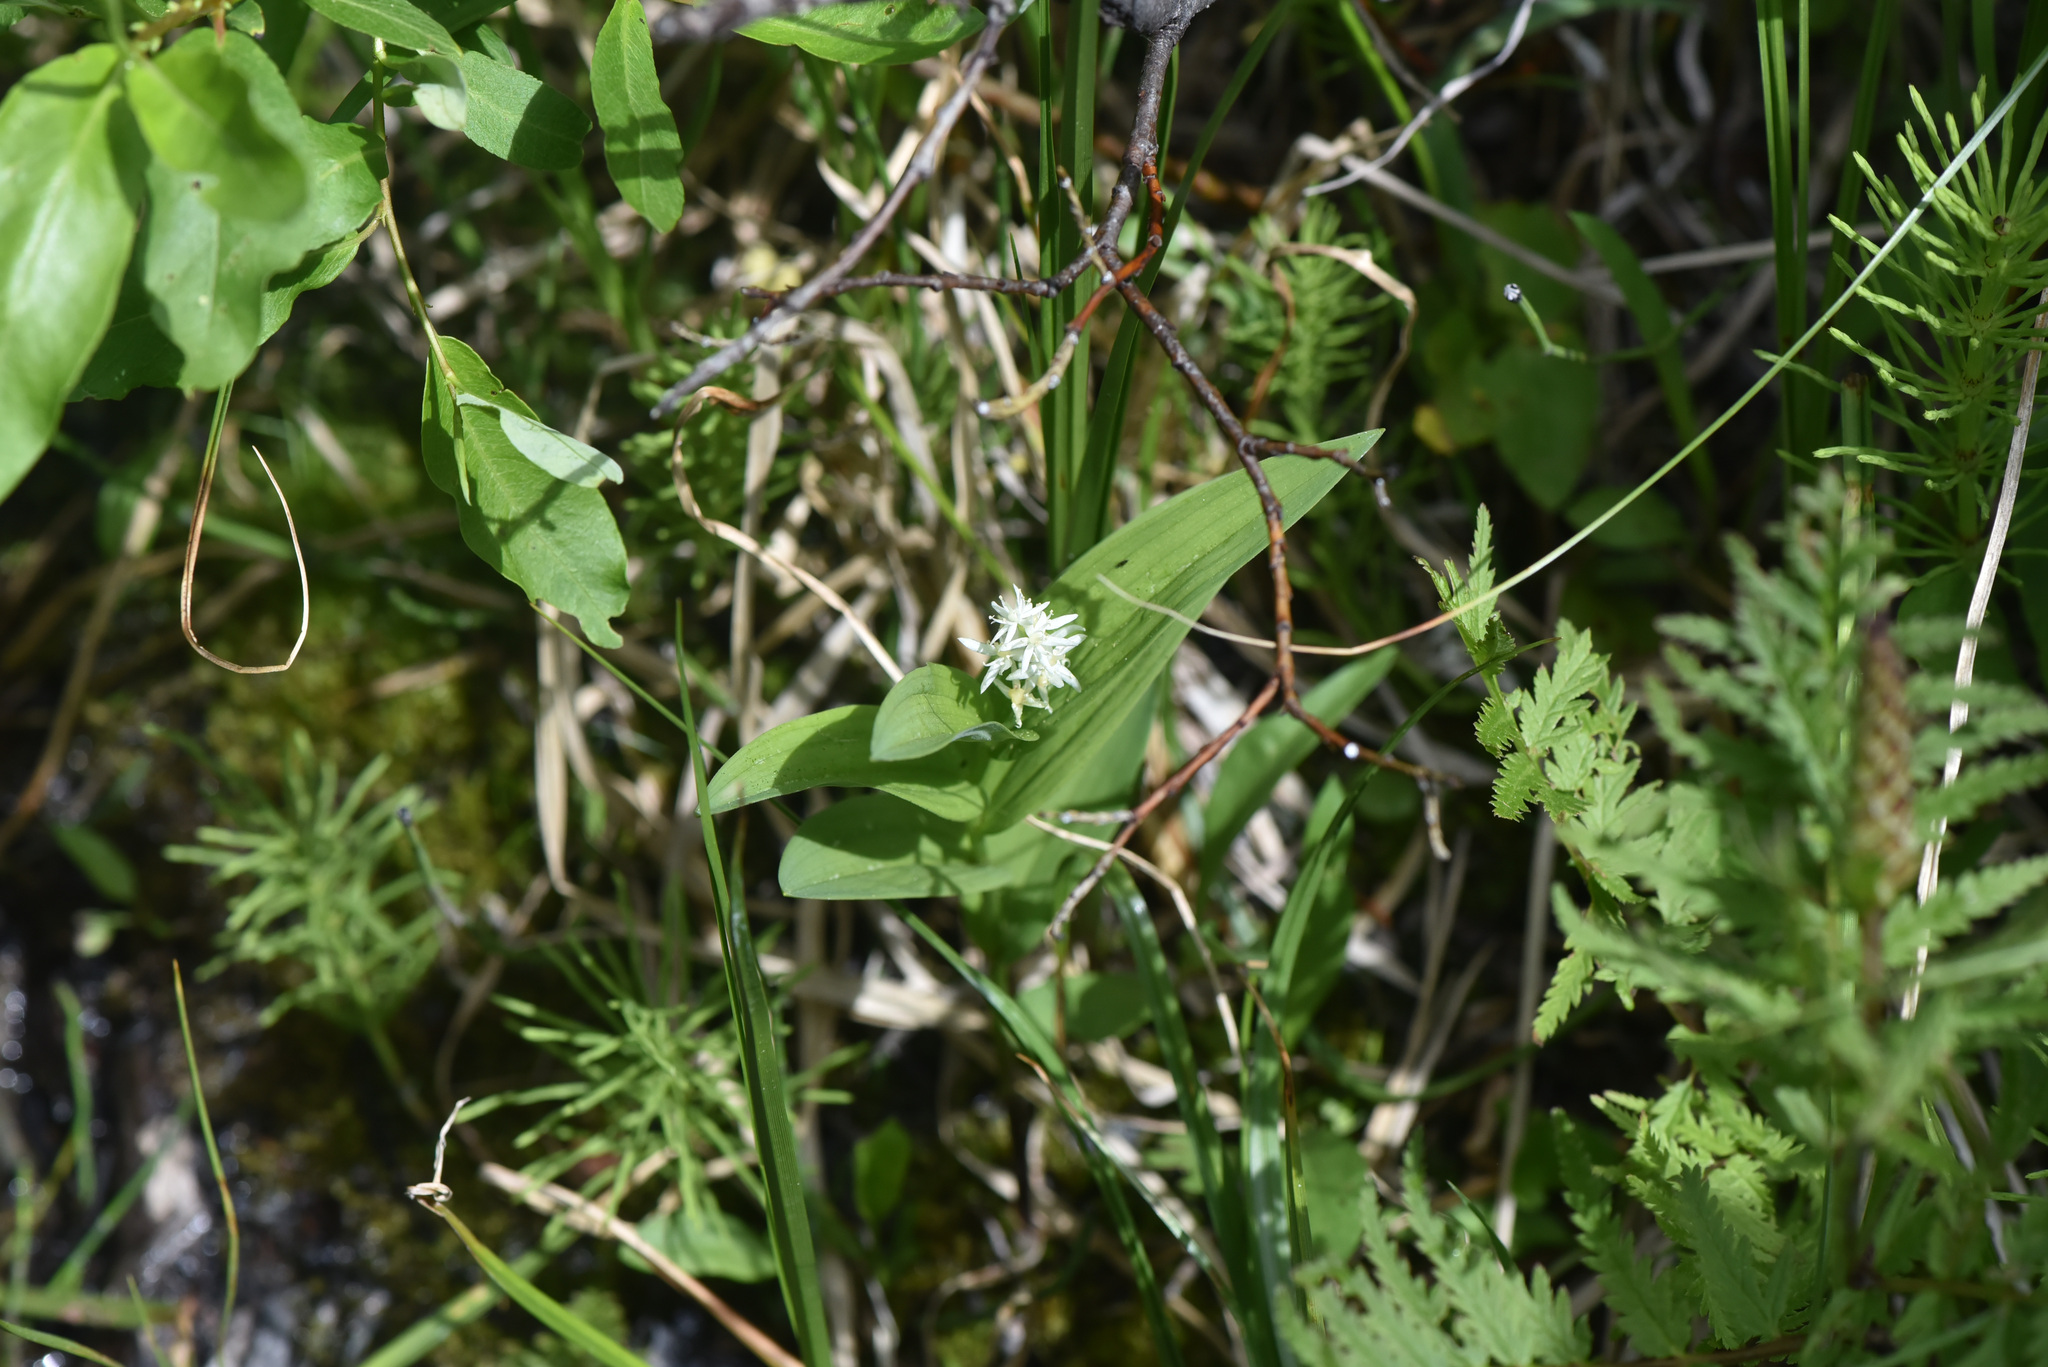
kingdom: Plantae
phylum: Tracheophyta
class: Liliopsida
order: Asparagales
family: Asparagaceae
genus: Maianthemum
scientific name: Maianthemum stellatum
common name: Little false solomon's seal
